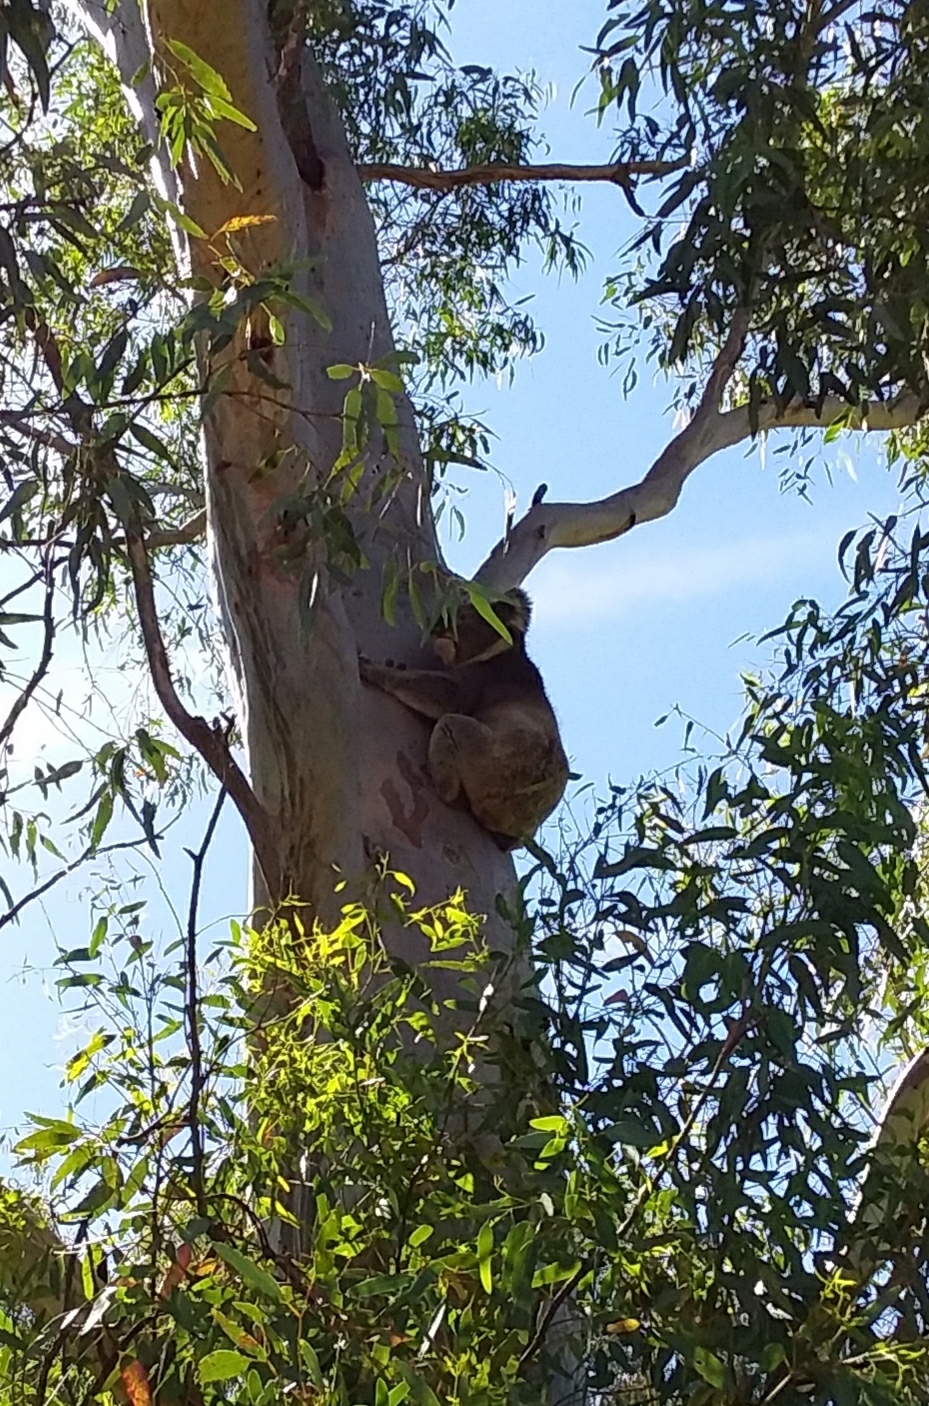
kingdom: Animalia
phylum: Chordata
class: Mammalia
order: Diprotodontia
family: Phascolarctidae
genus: Phascolarctos
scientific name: Phascolarctos cinereus
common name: Koala
